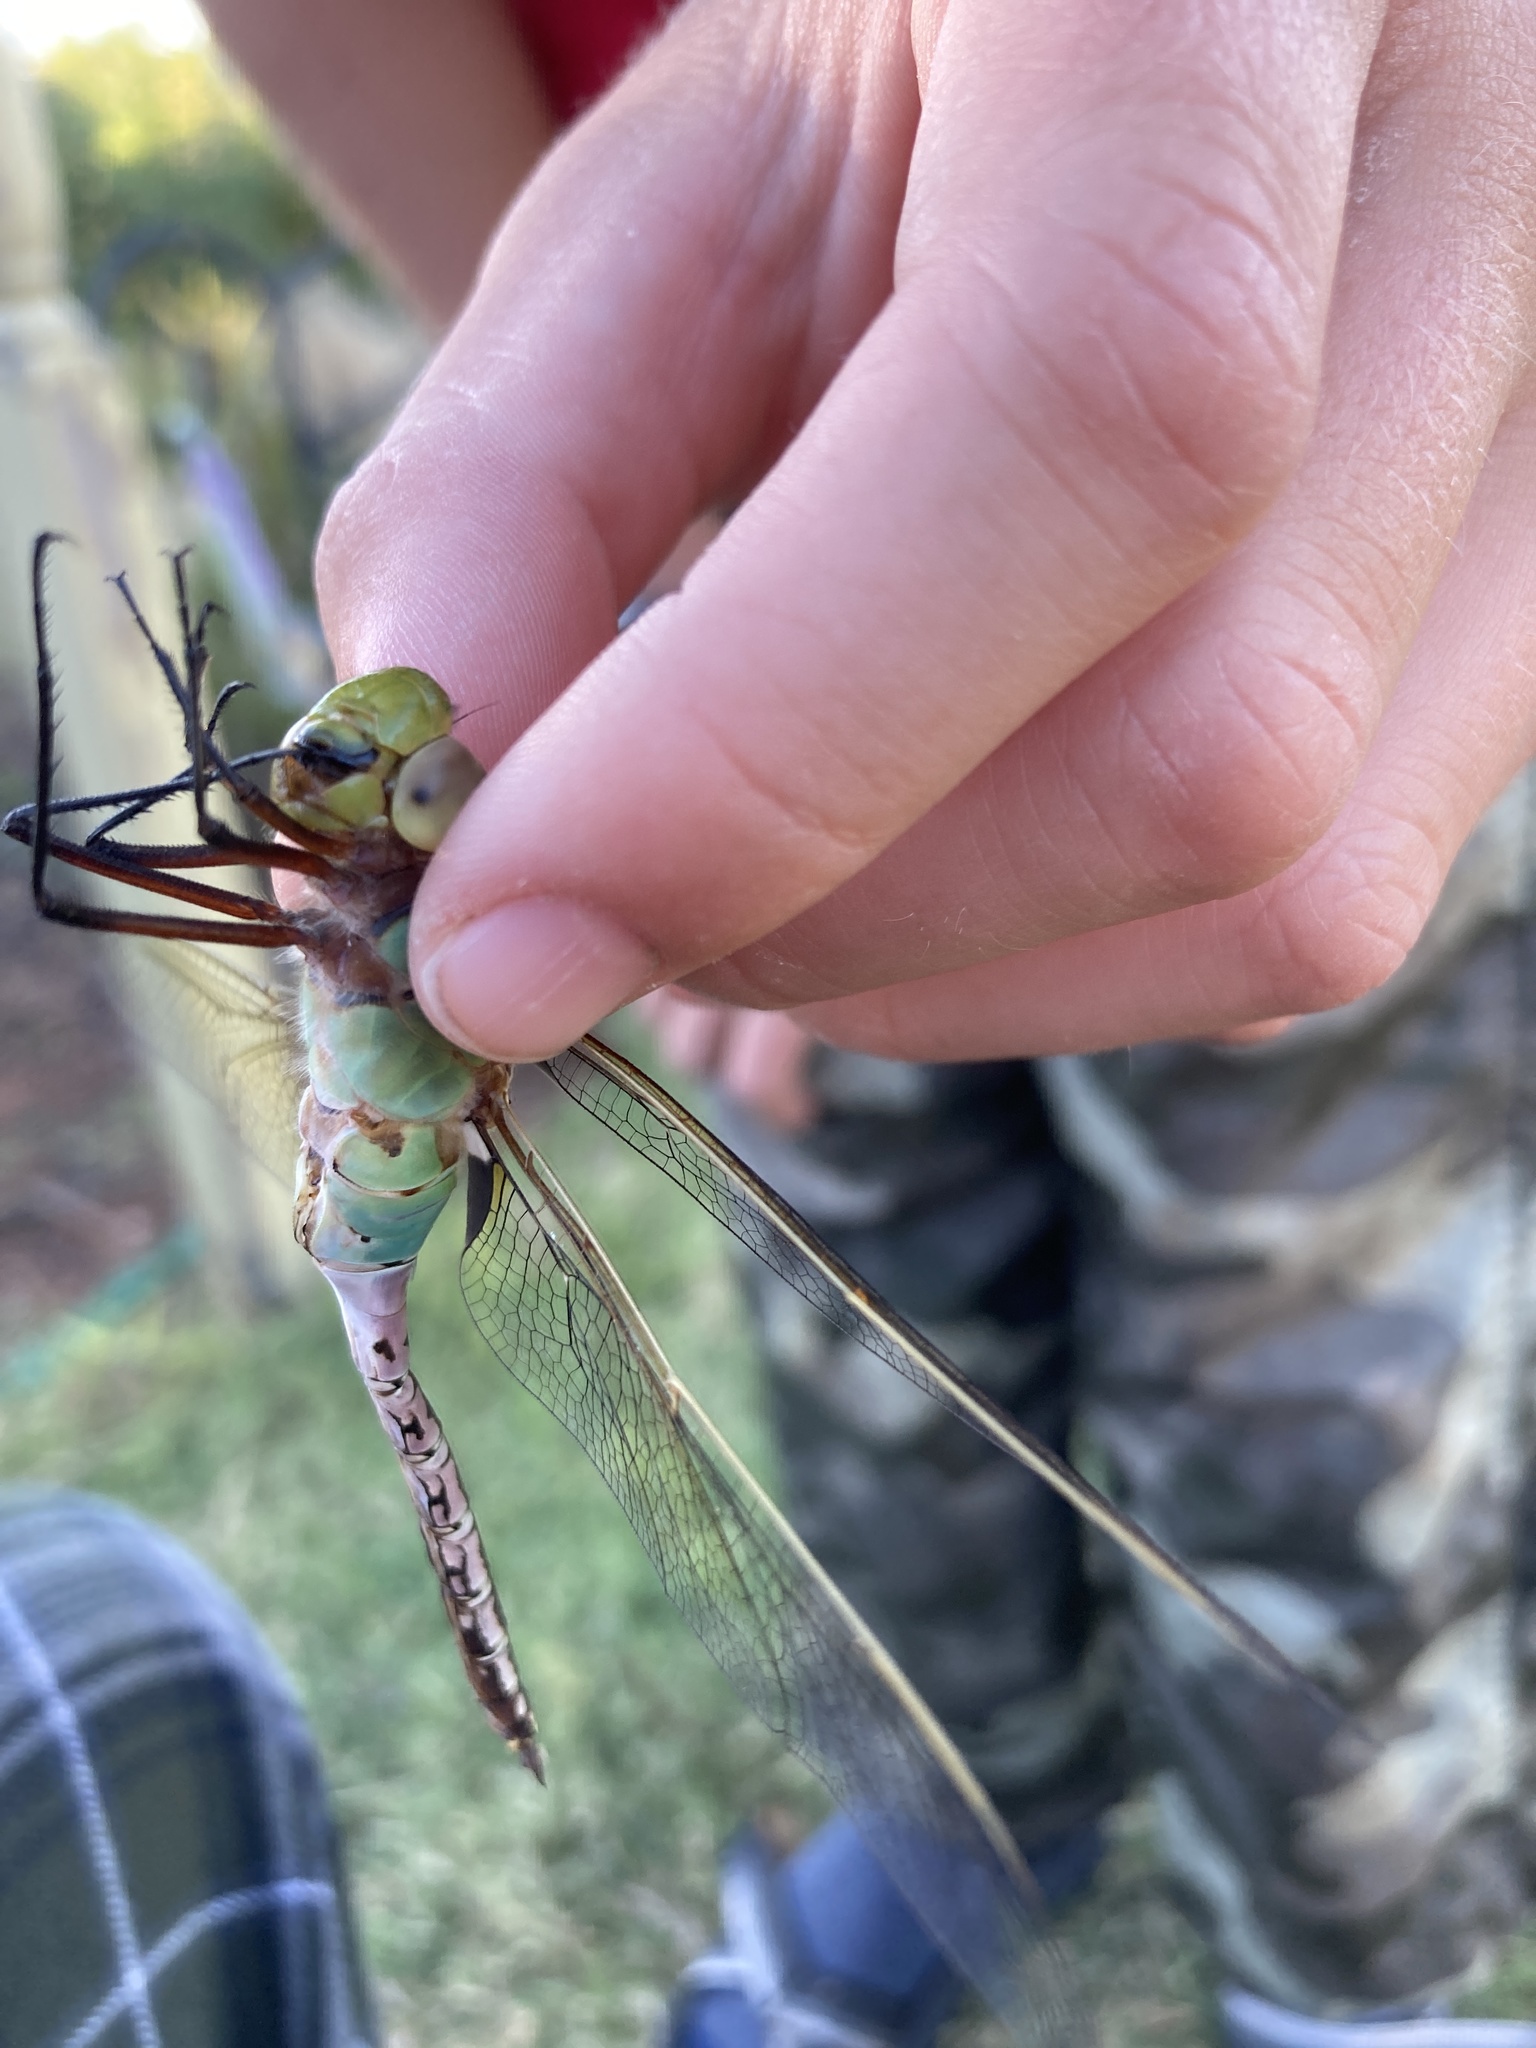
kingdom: Animalia
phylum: Arthropoda
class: Insecta
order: Odonata
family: Aeshnidae
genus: Anax
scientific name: Anax junius
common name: Common green darner
